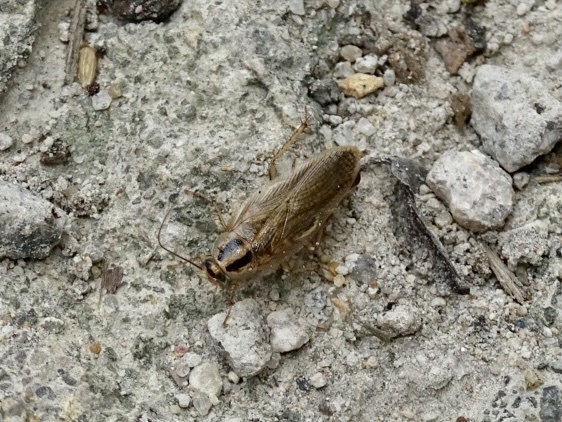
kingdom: Animalia
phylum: Arthropoda
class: Insecta
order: Blattodea
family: Ectobiidae
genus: Blattella
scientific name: Blattella germanica
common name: German cockroach
